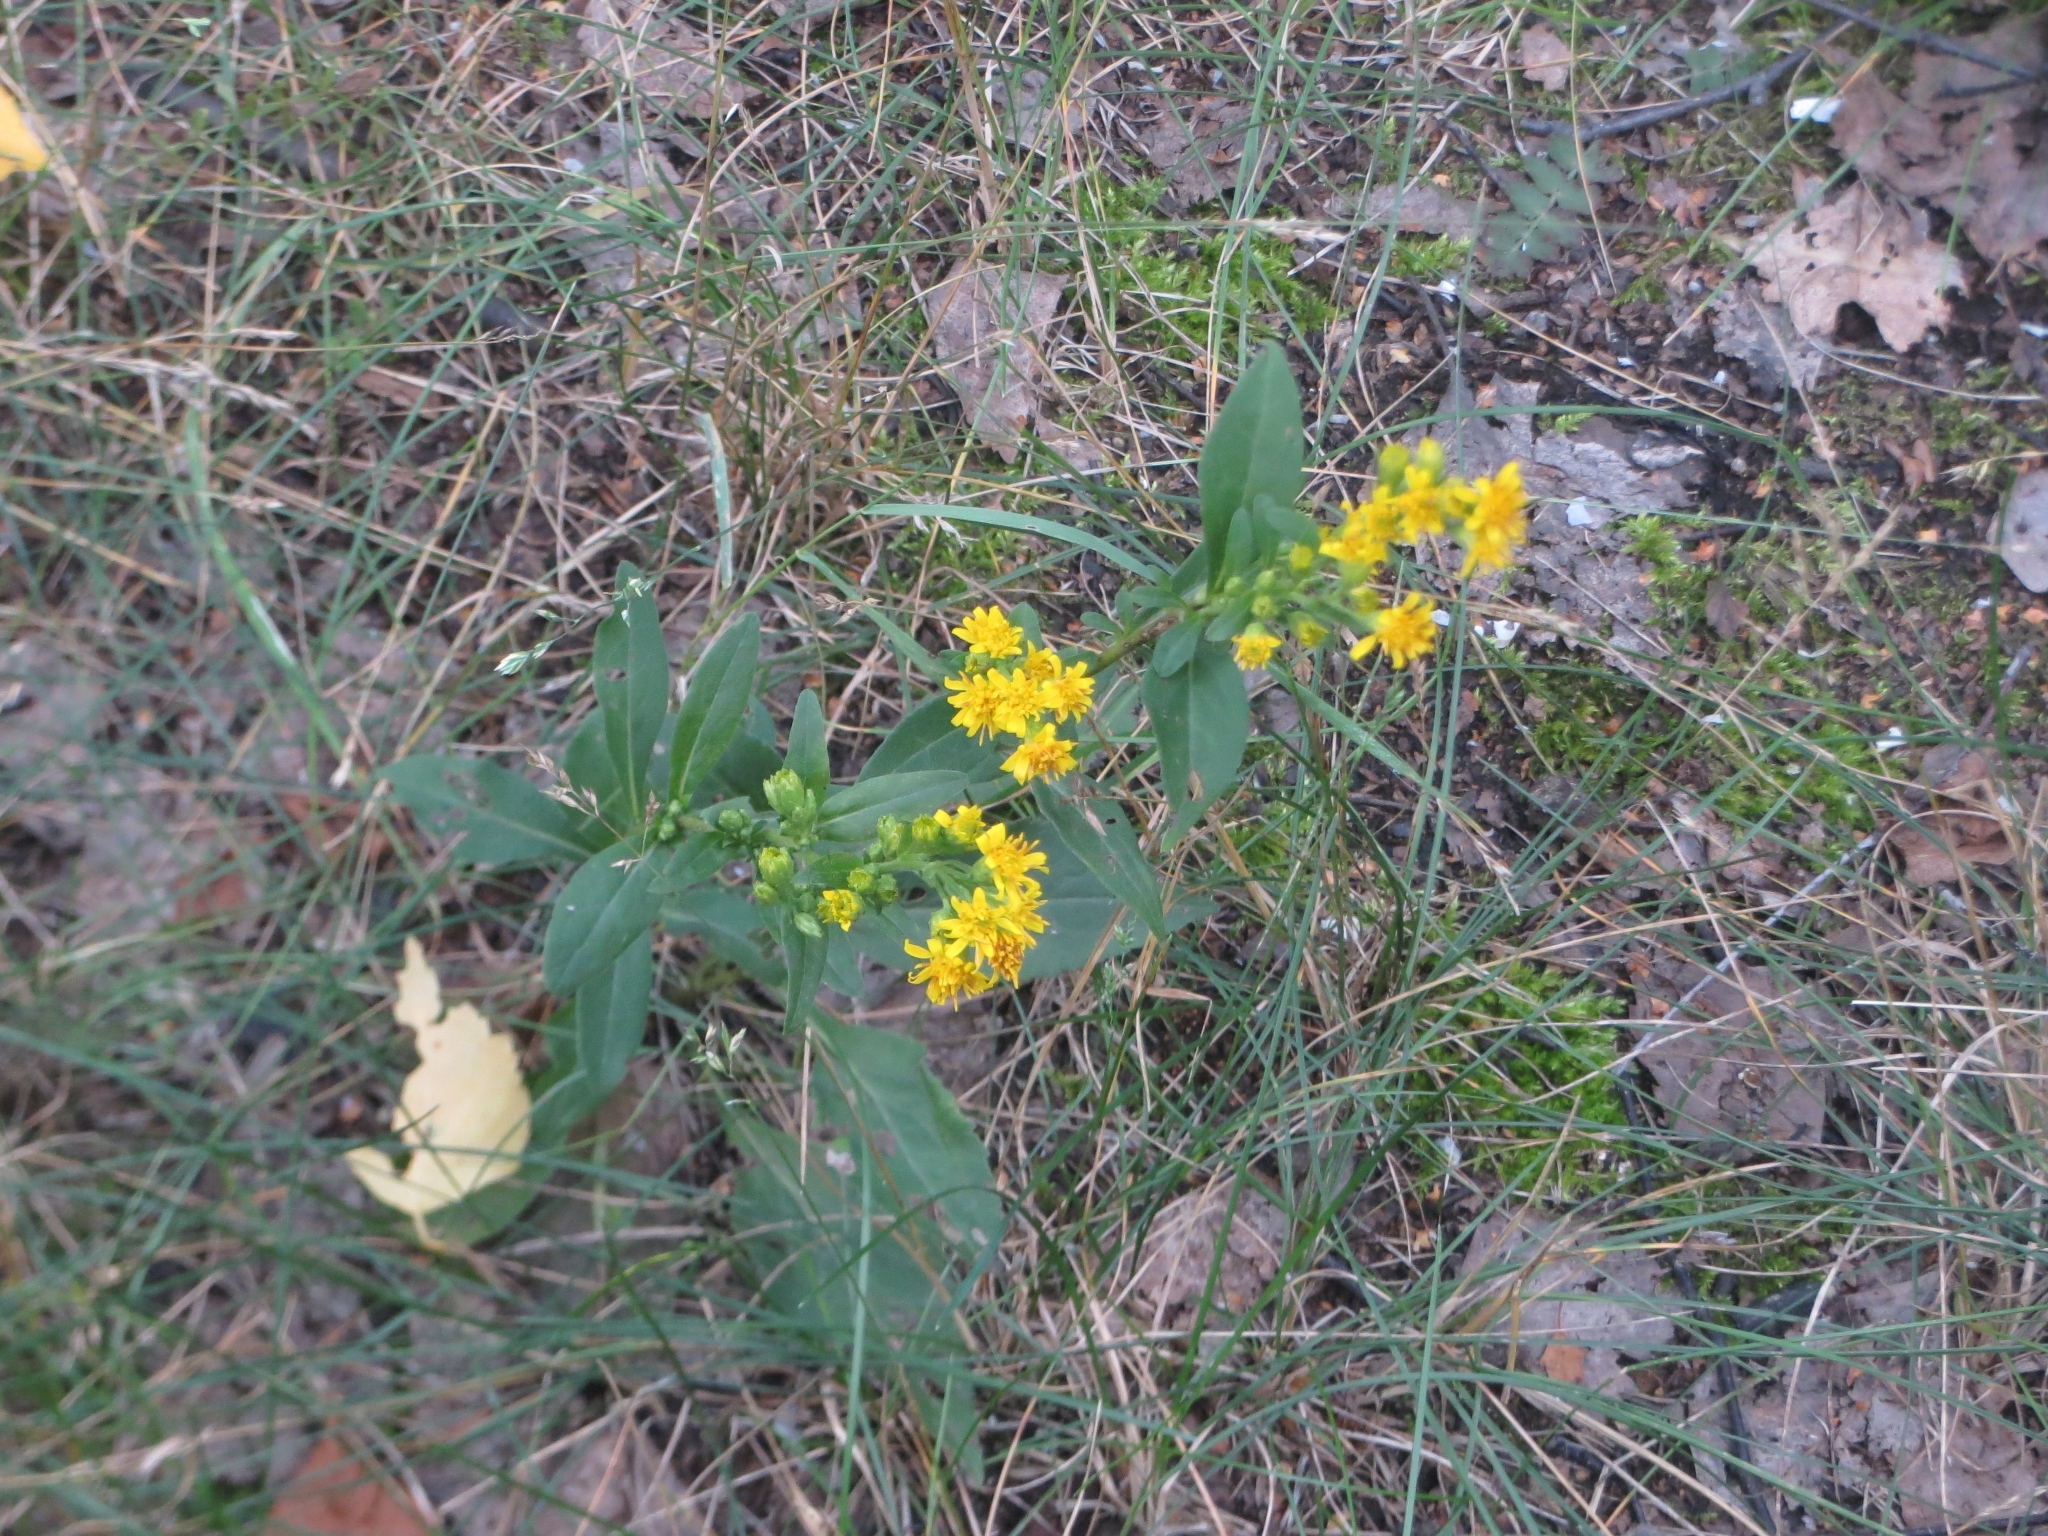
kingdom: Plantae
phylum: Tracheophyta
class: Magnoliopsida
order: Asterales
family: Asteraceae
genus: Solidago
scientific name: Solidago virgaurea
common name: Goldenrod
